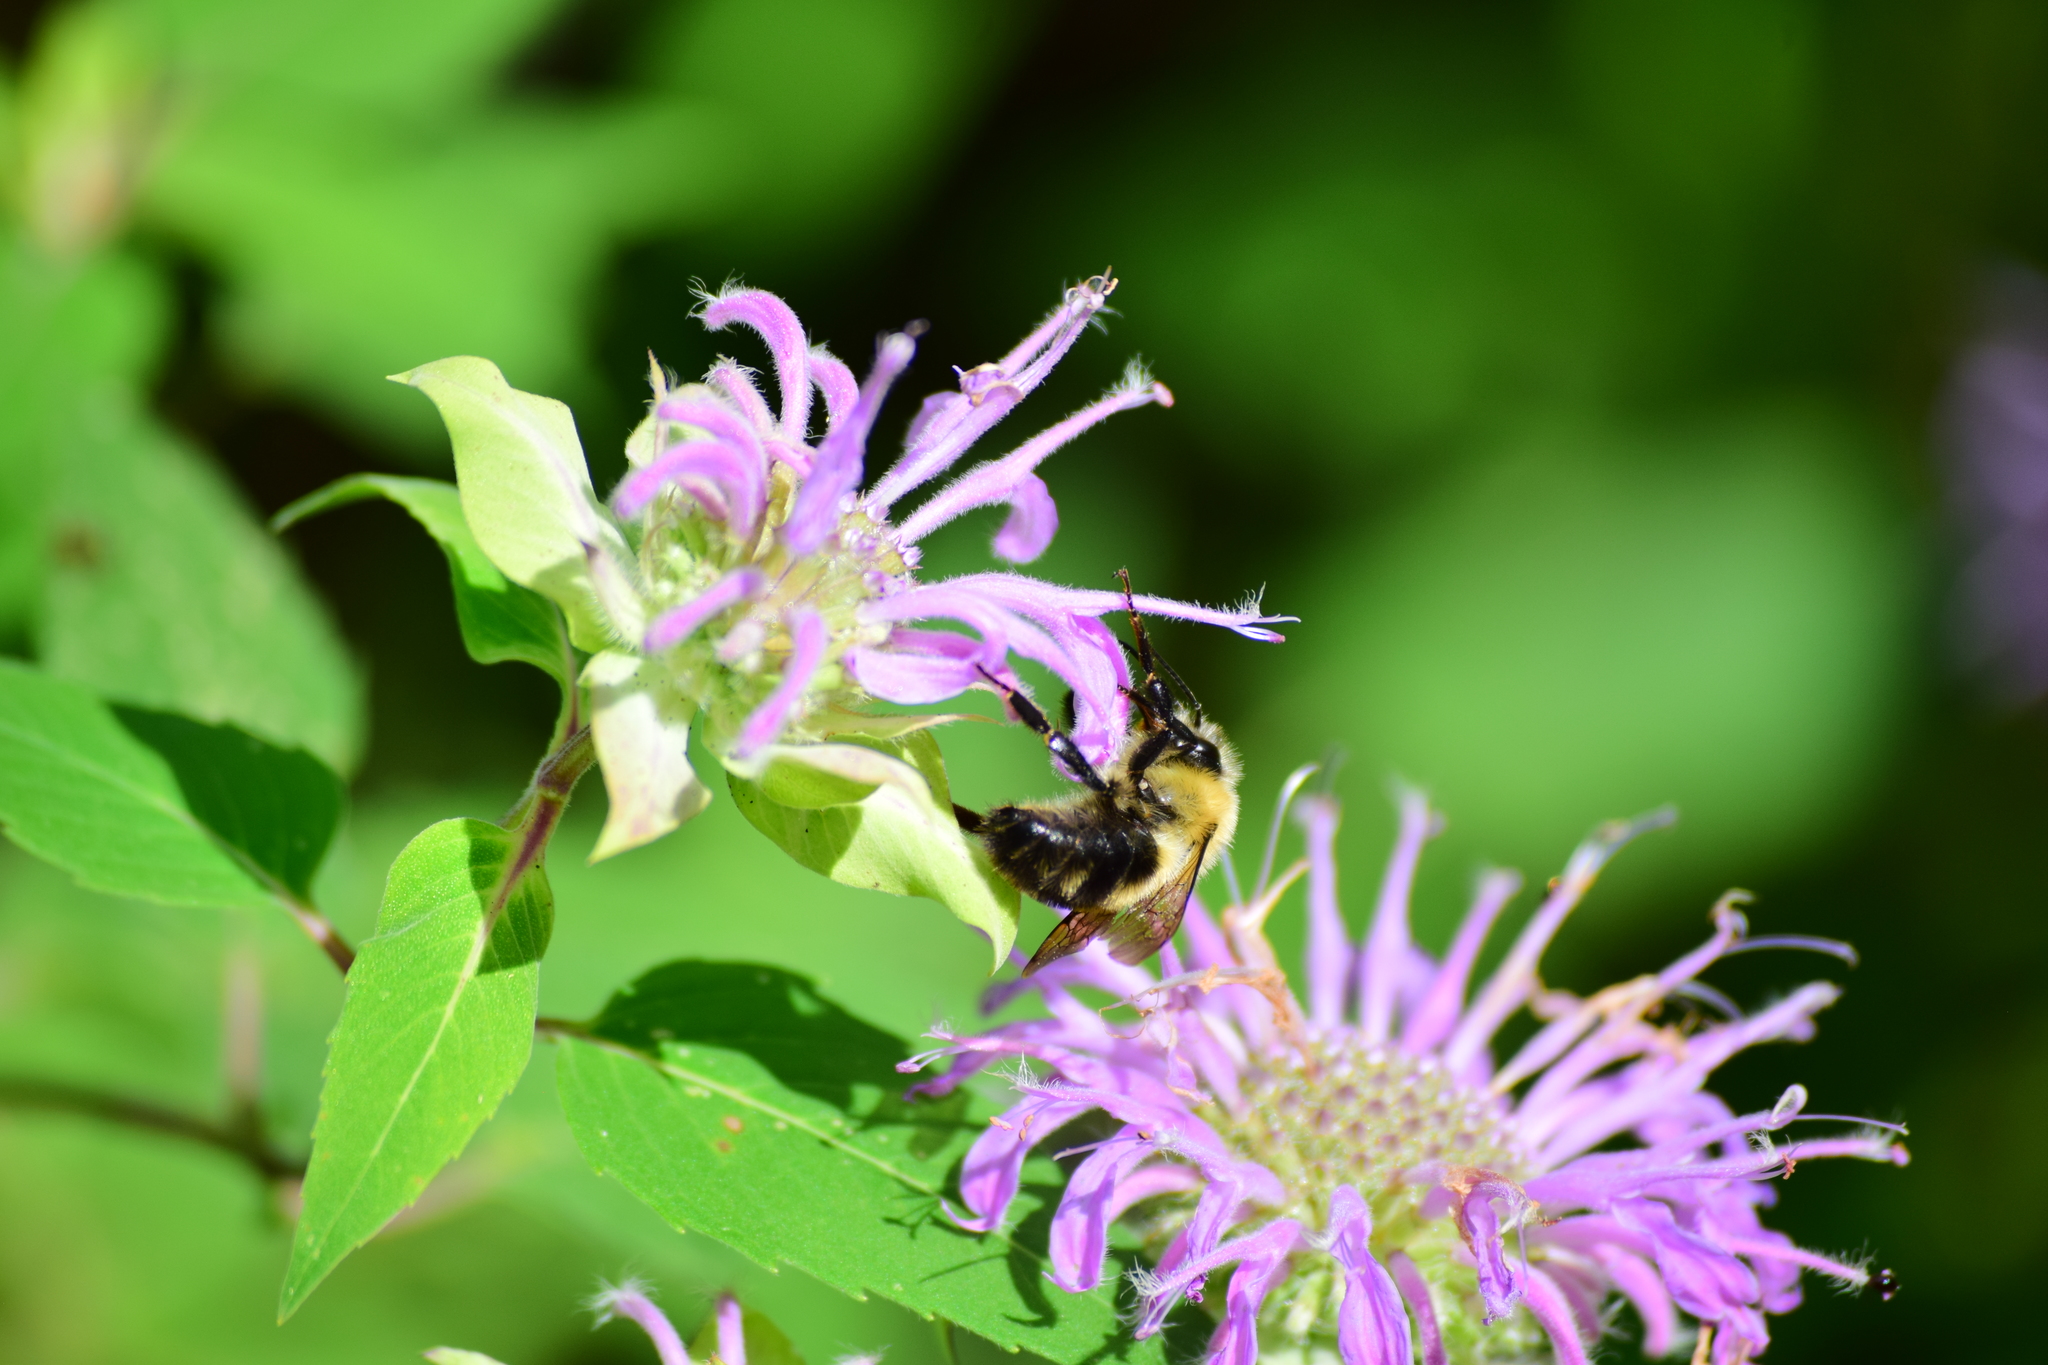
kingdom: Animalia
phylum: Arthropoda
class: Insecta
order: Hymenoptera
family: Apidae
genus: Bombus
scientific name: Bombus bimaculatus
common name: Two-spotted bumble bee
